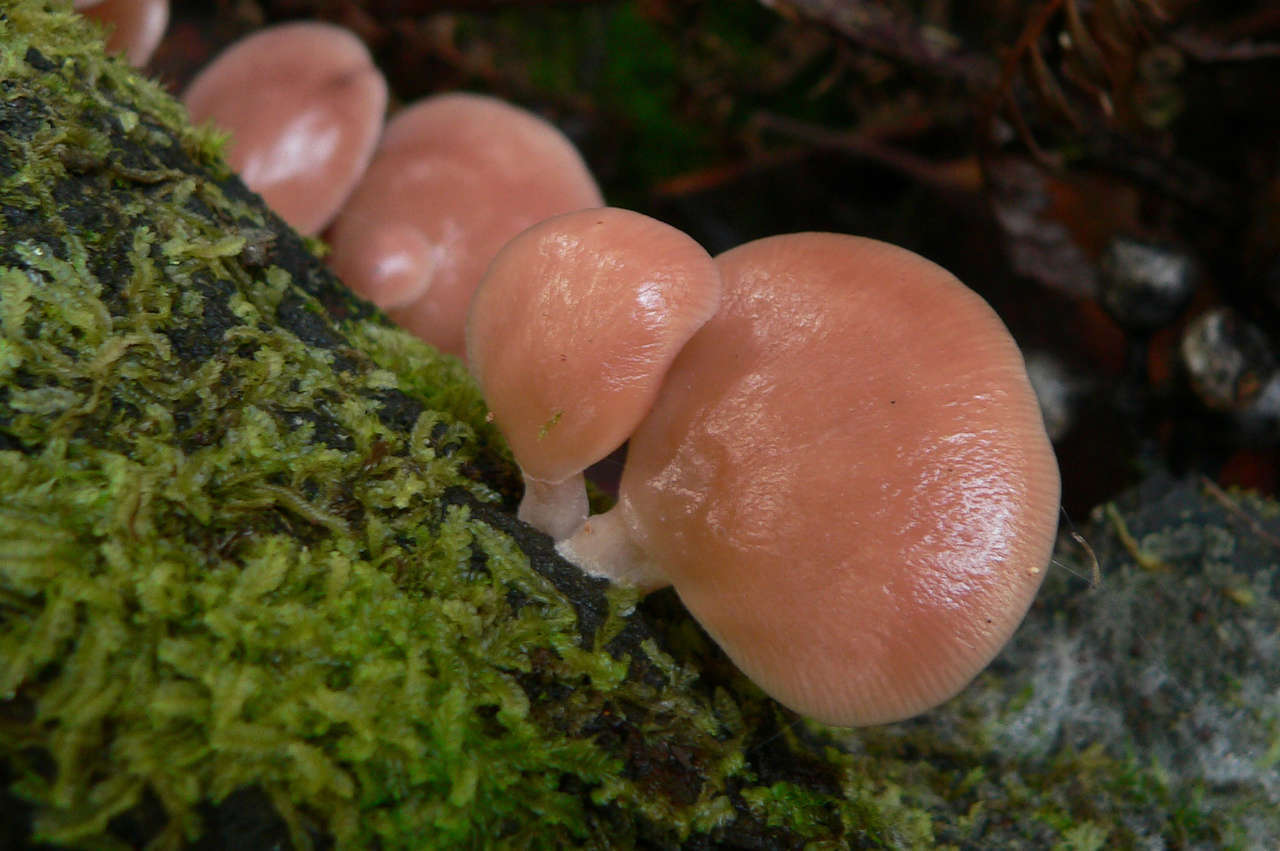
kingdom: Fungi
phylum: Basidiomycota
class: Agaricomycetes
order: Agaricales
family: Mycenaceae
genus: Panellus
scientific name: Panellus longinquus
